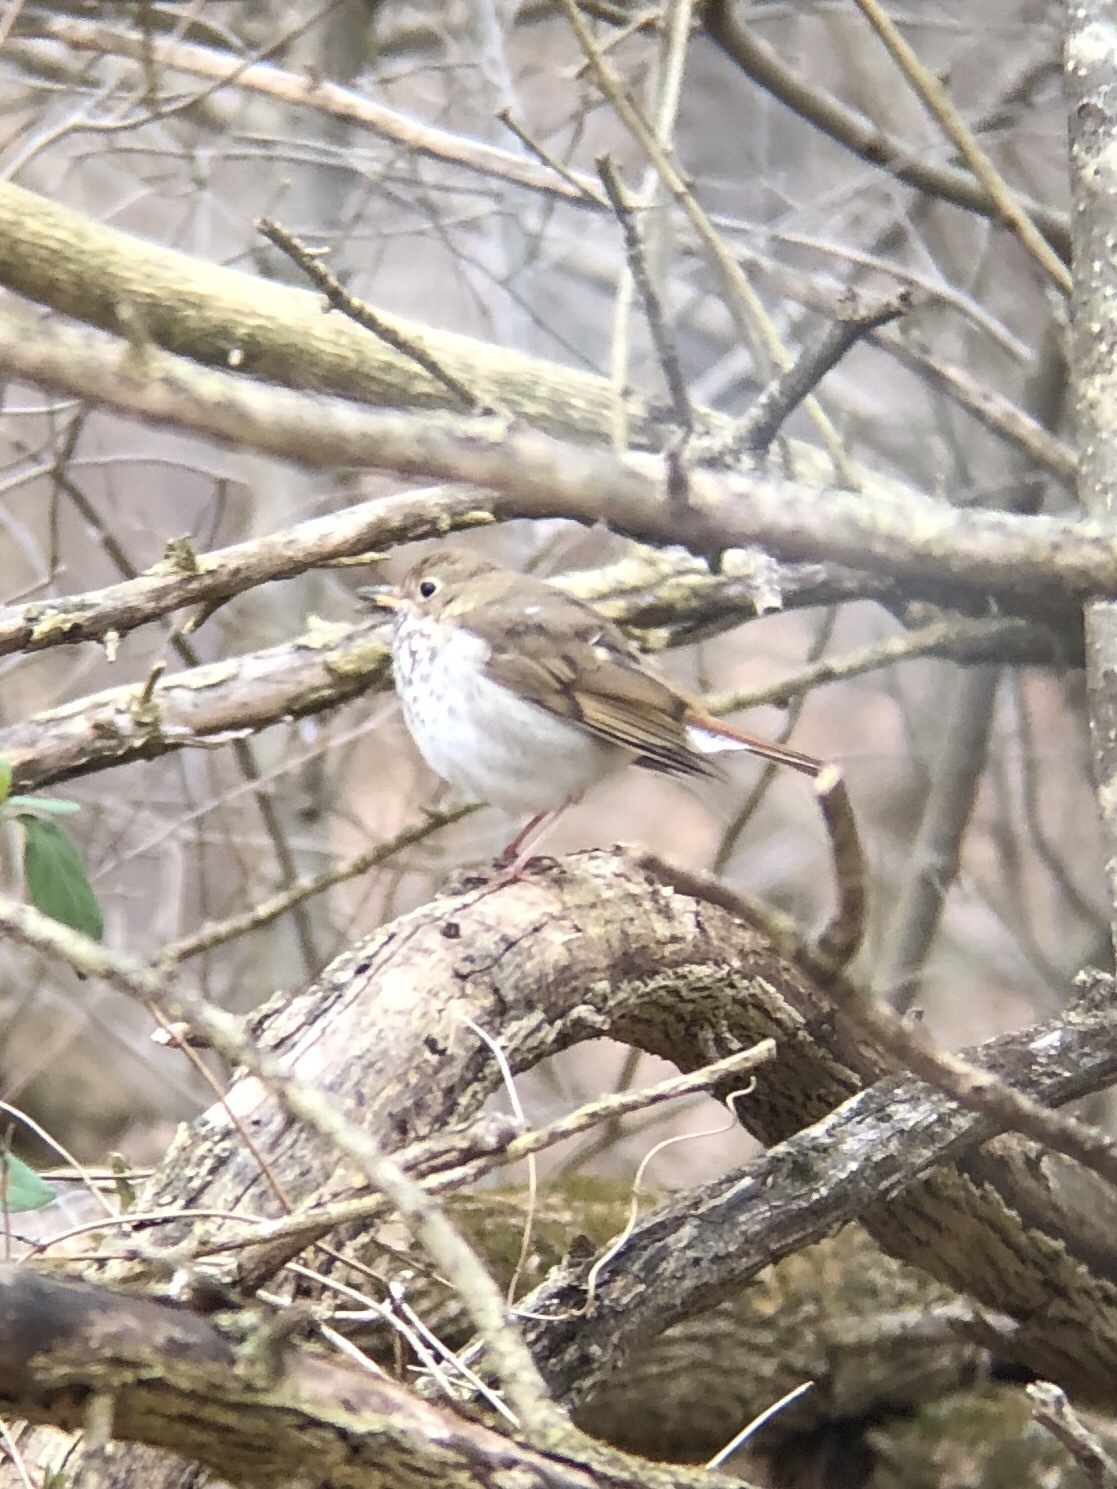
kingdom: Animalia
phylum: Chordata
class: Aves
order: Passeriformes
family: Turdidae
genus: Catharus
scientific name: Catharus guttatus
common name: Hermit thrush
